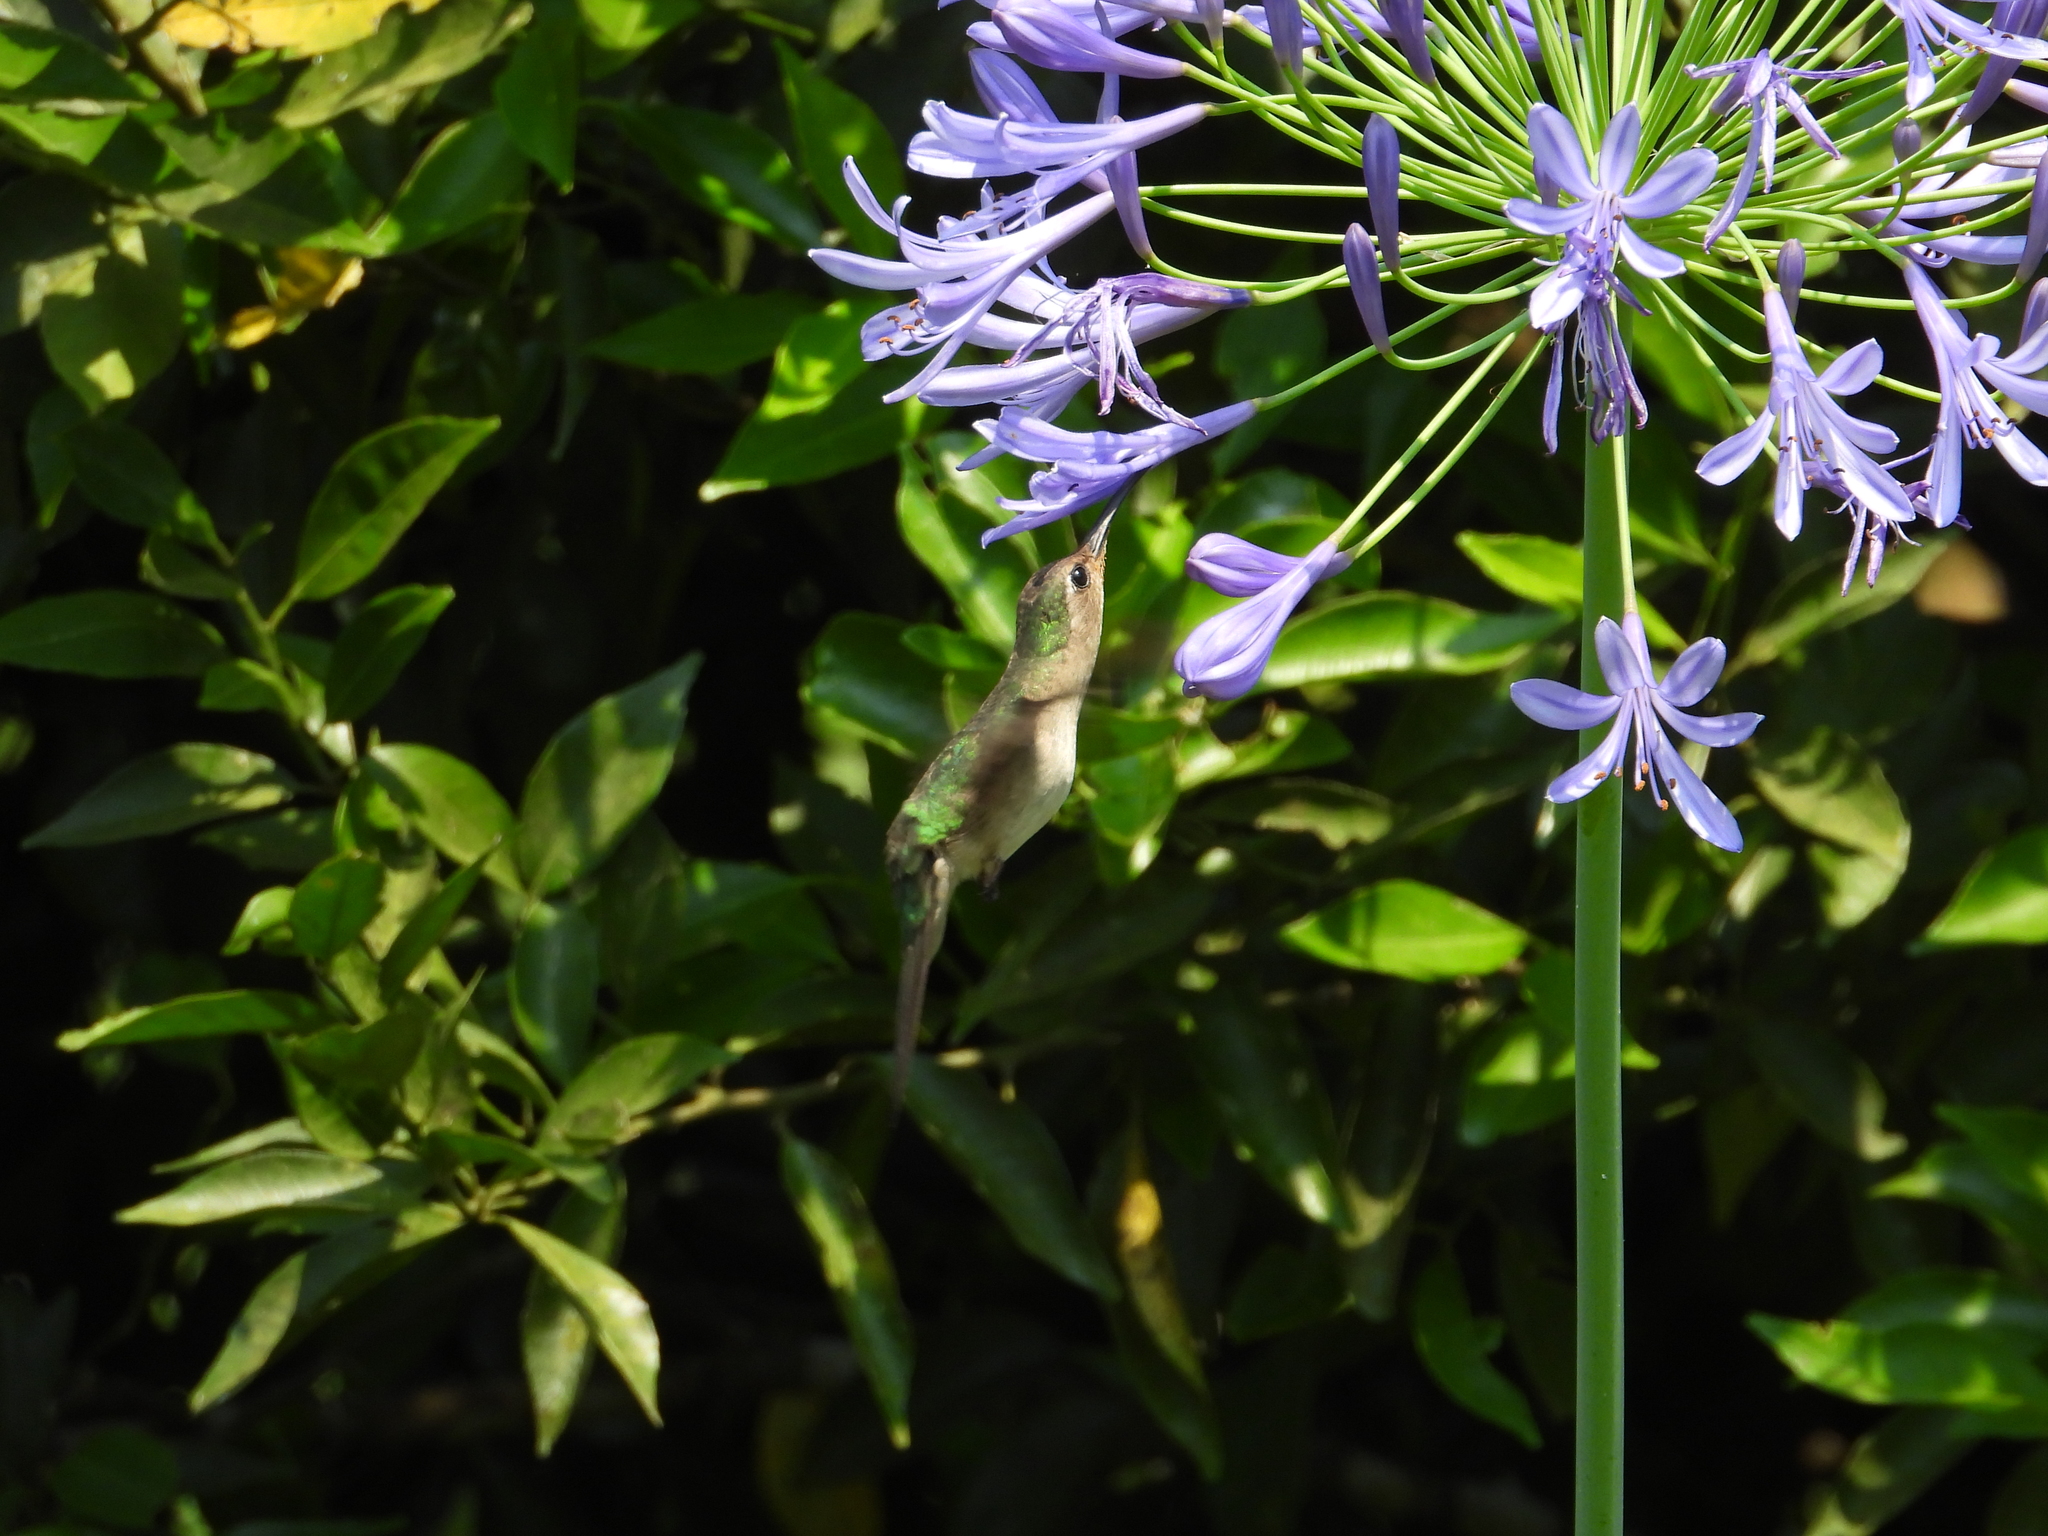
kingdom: Animalia
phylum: Chordata
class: Aves
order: Apodiformes
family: Trochilidae
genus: Pampa
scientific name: Pampa curvipennis
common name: Curve-winged sabrewing
